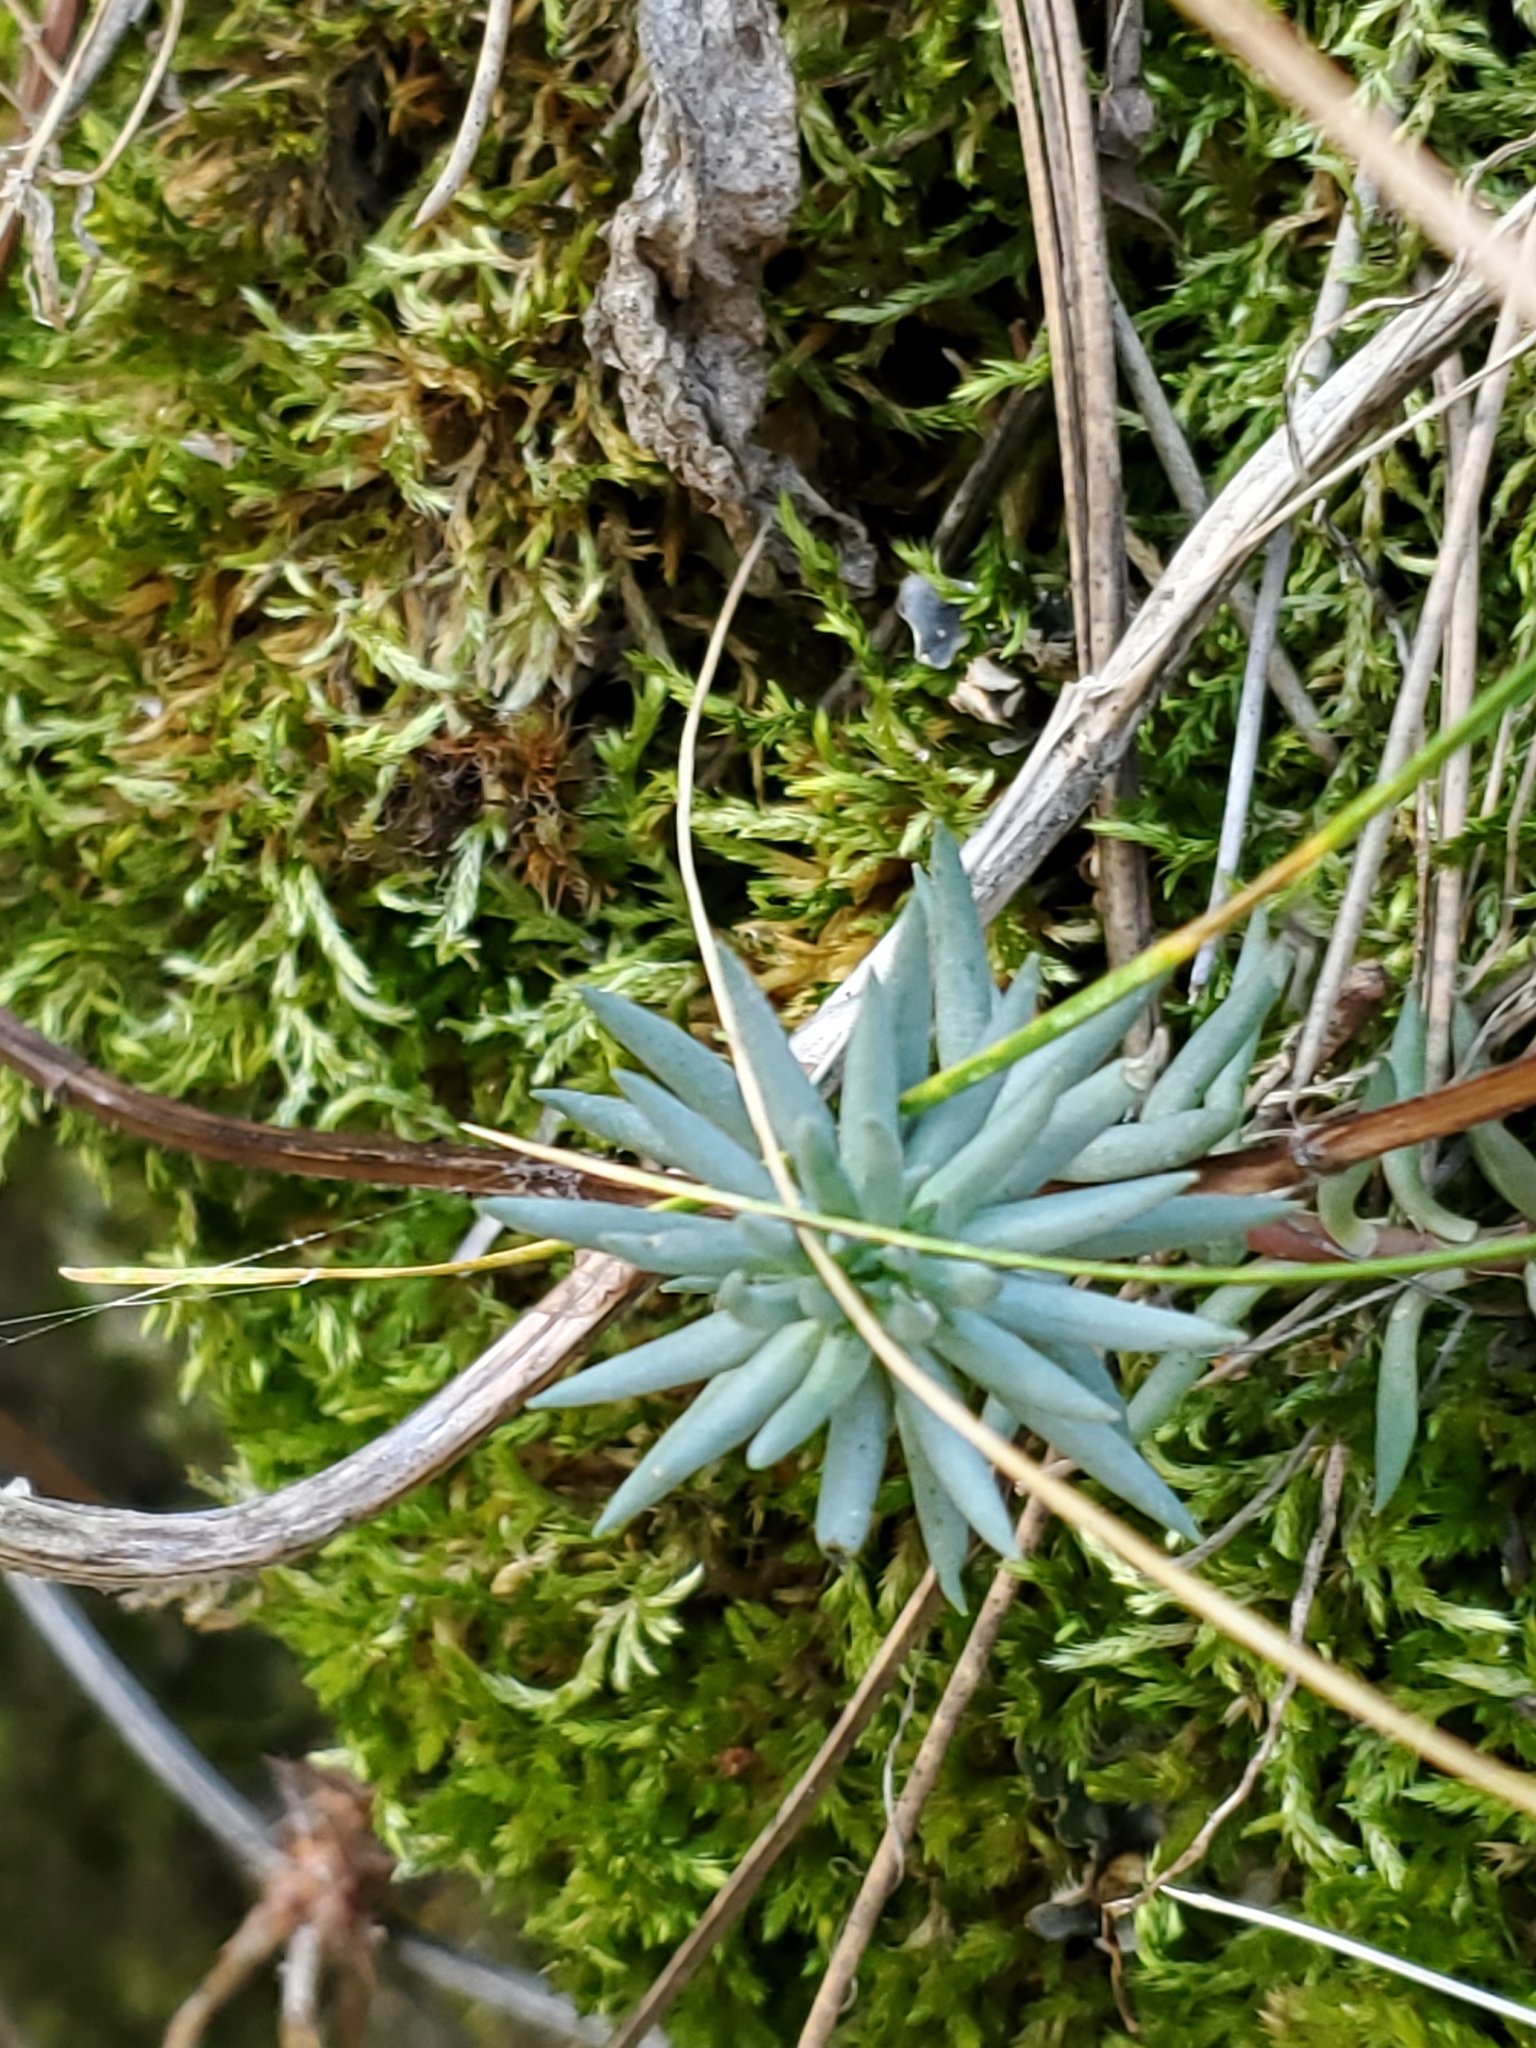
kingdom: Plantae
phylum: Tracheophyta
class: Magnoliopsida
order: Saxifragales
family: Crassulaceae
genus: Sedum
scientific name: Sedum lanceolatum
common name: Common stonecrop
